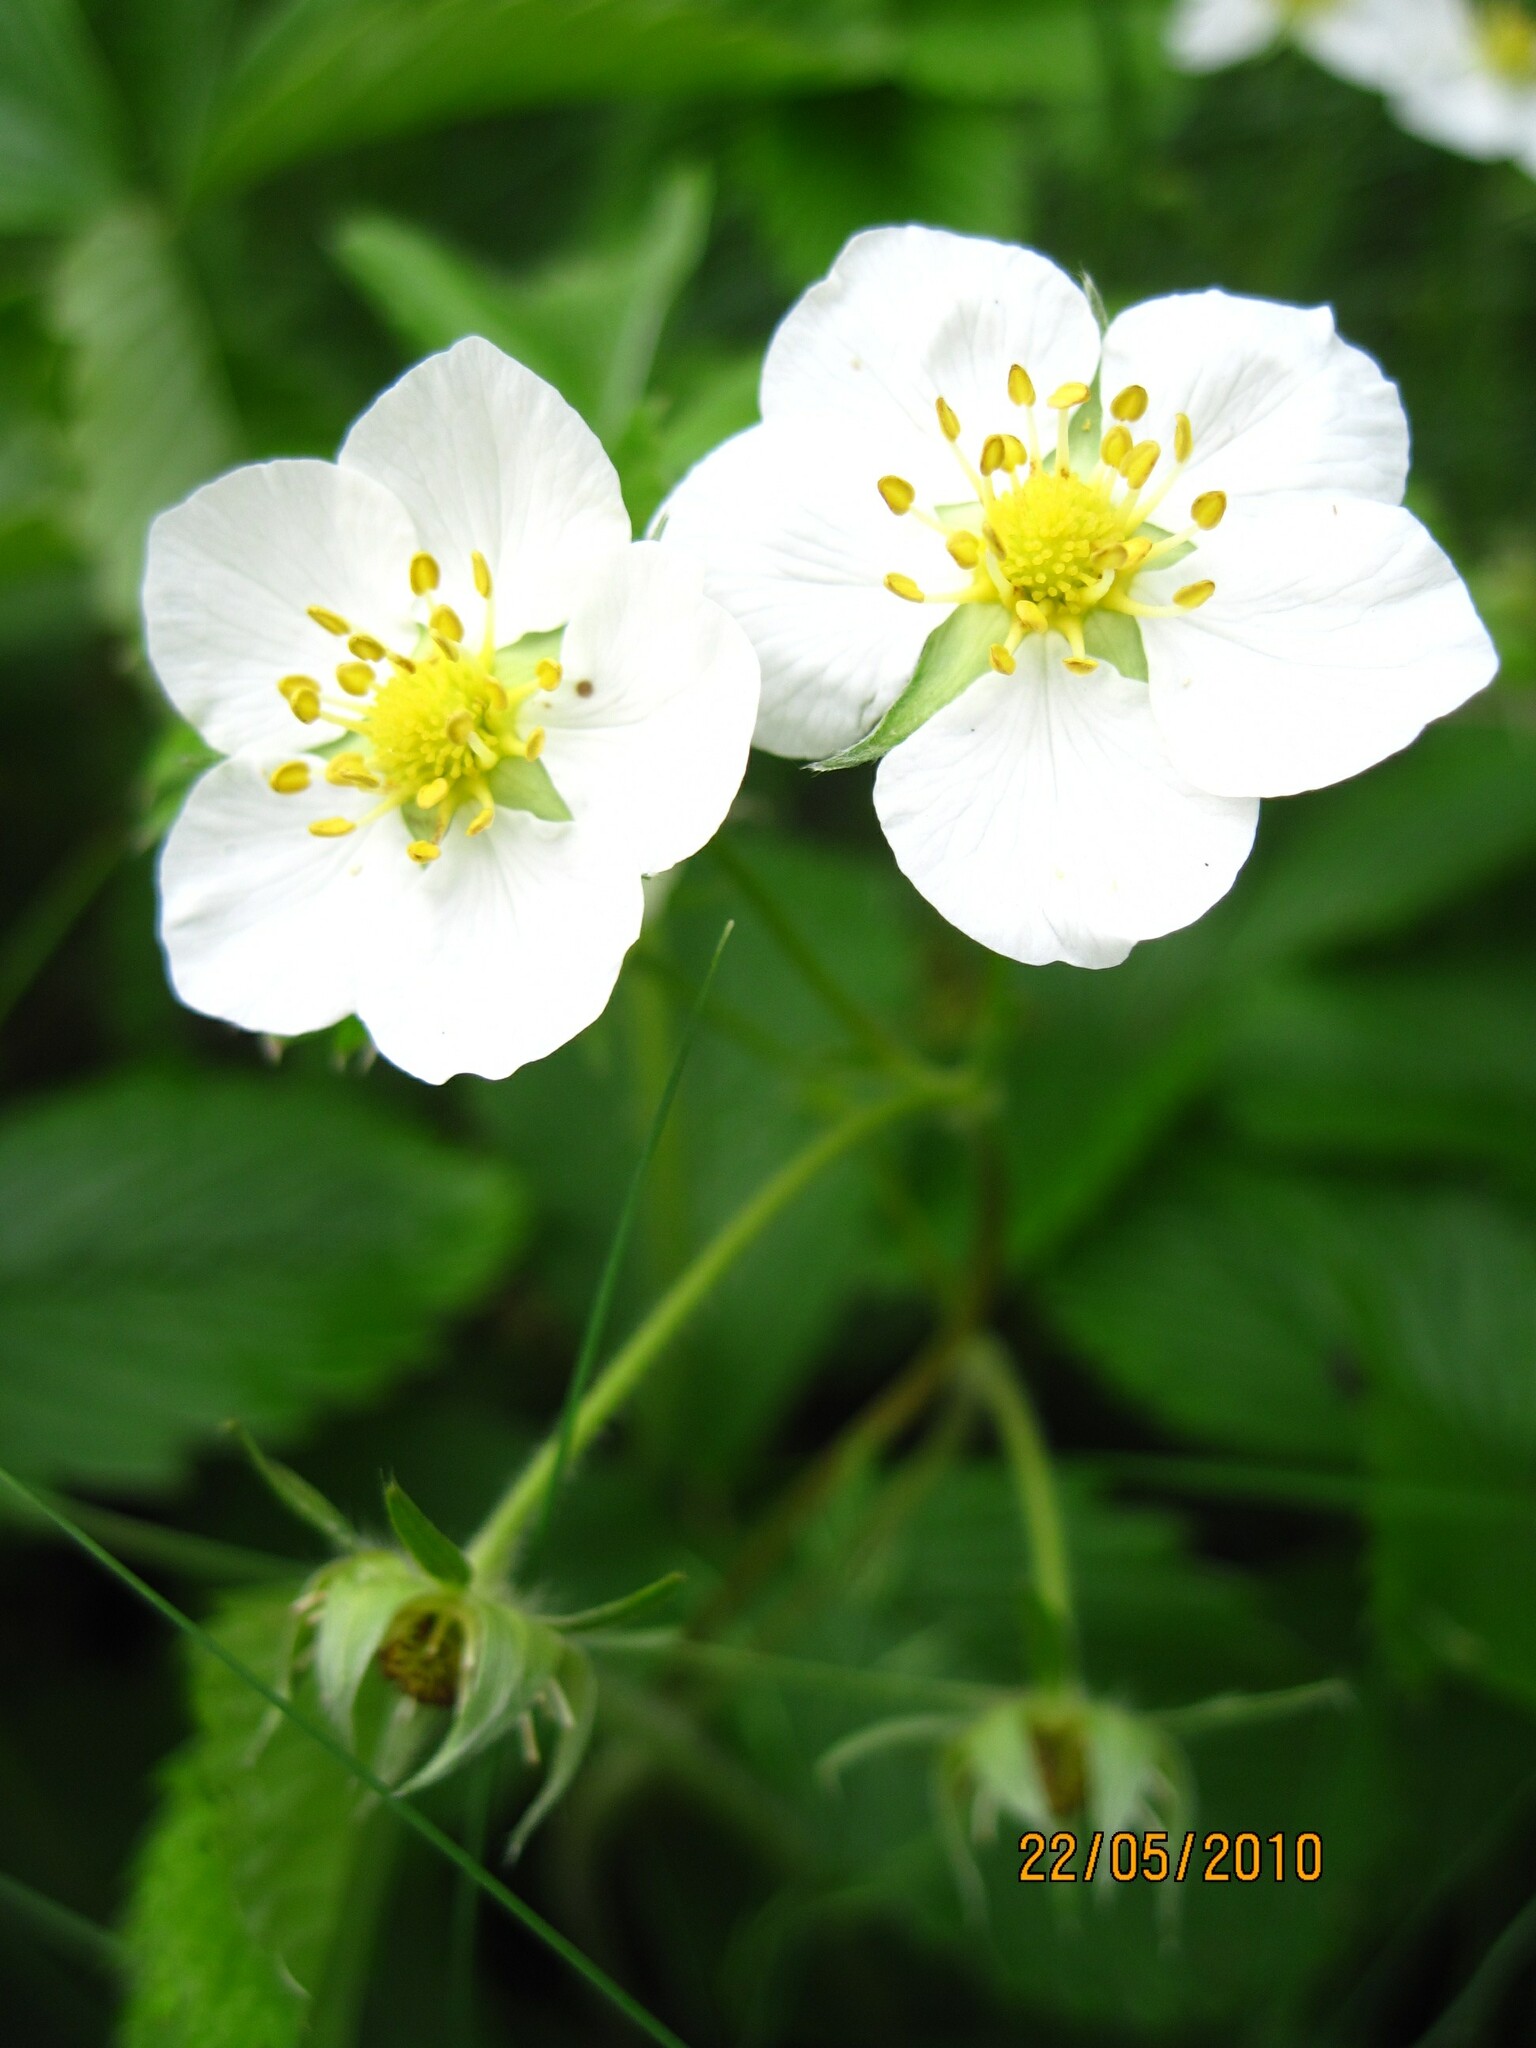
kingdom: Plantae
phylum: Tracheophyta
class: Magnoliopsida
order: Rosales
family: Rosaceae
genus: Fragaria
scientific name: Fragaria viridis
